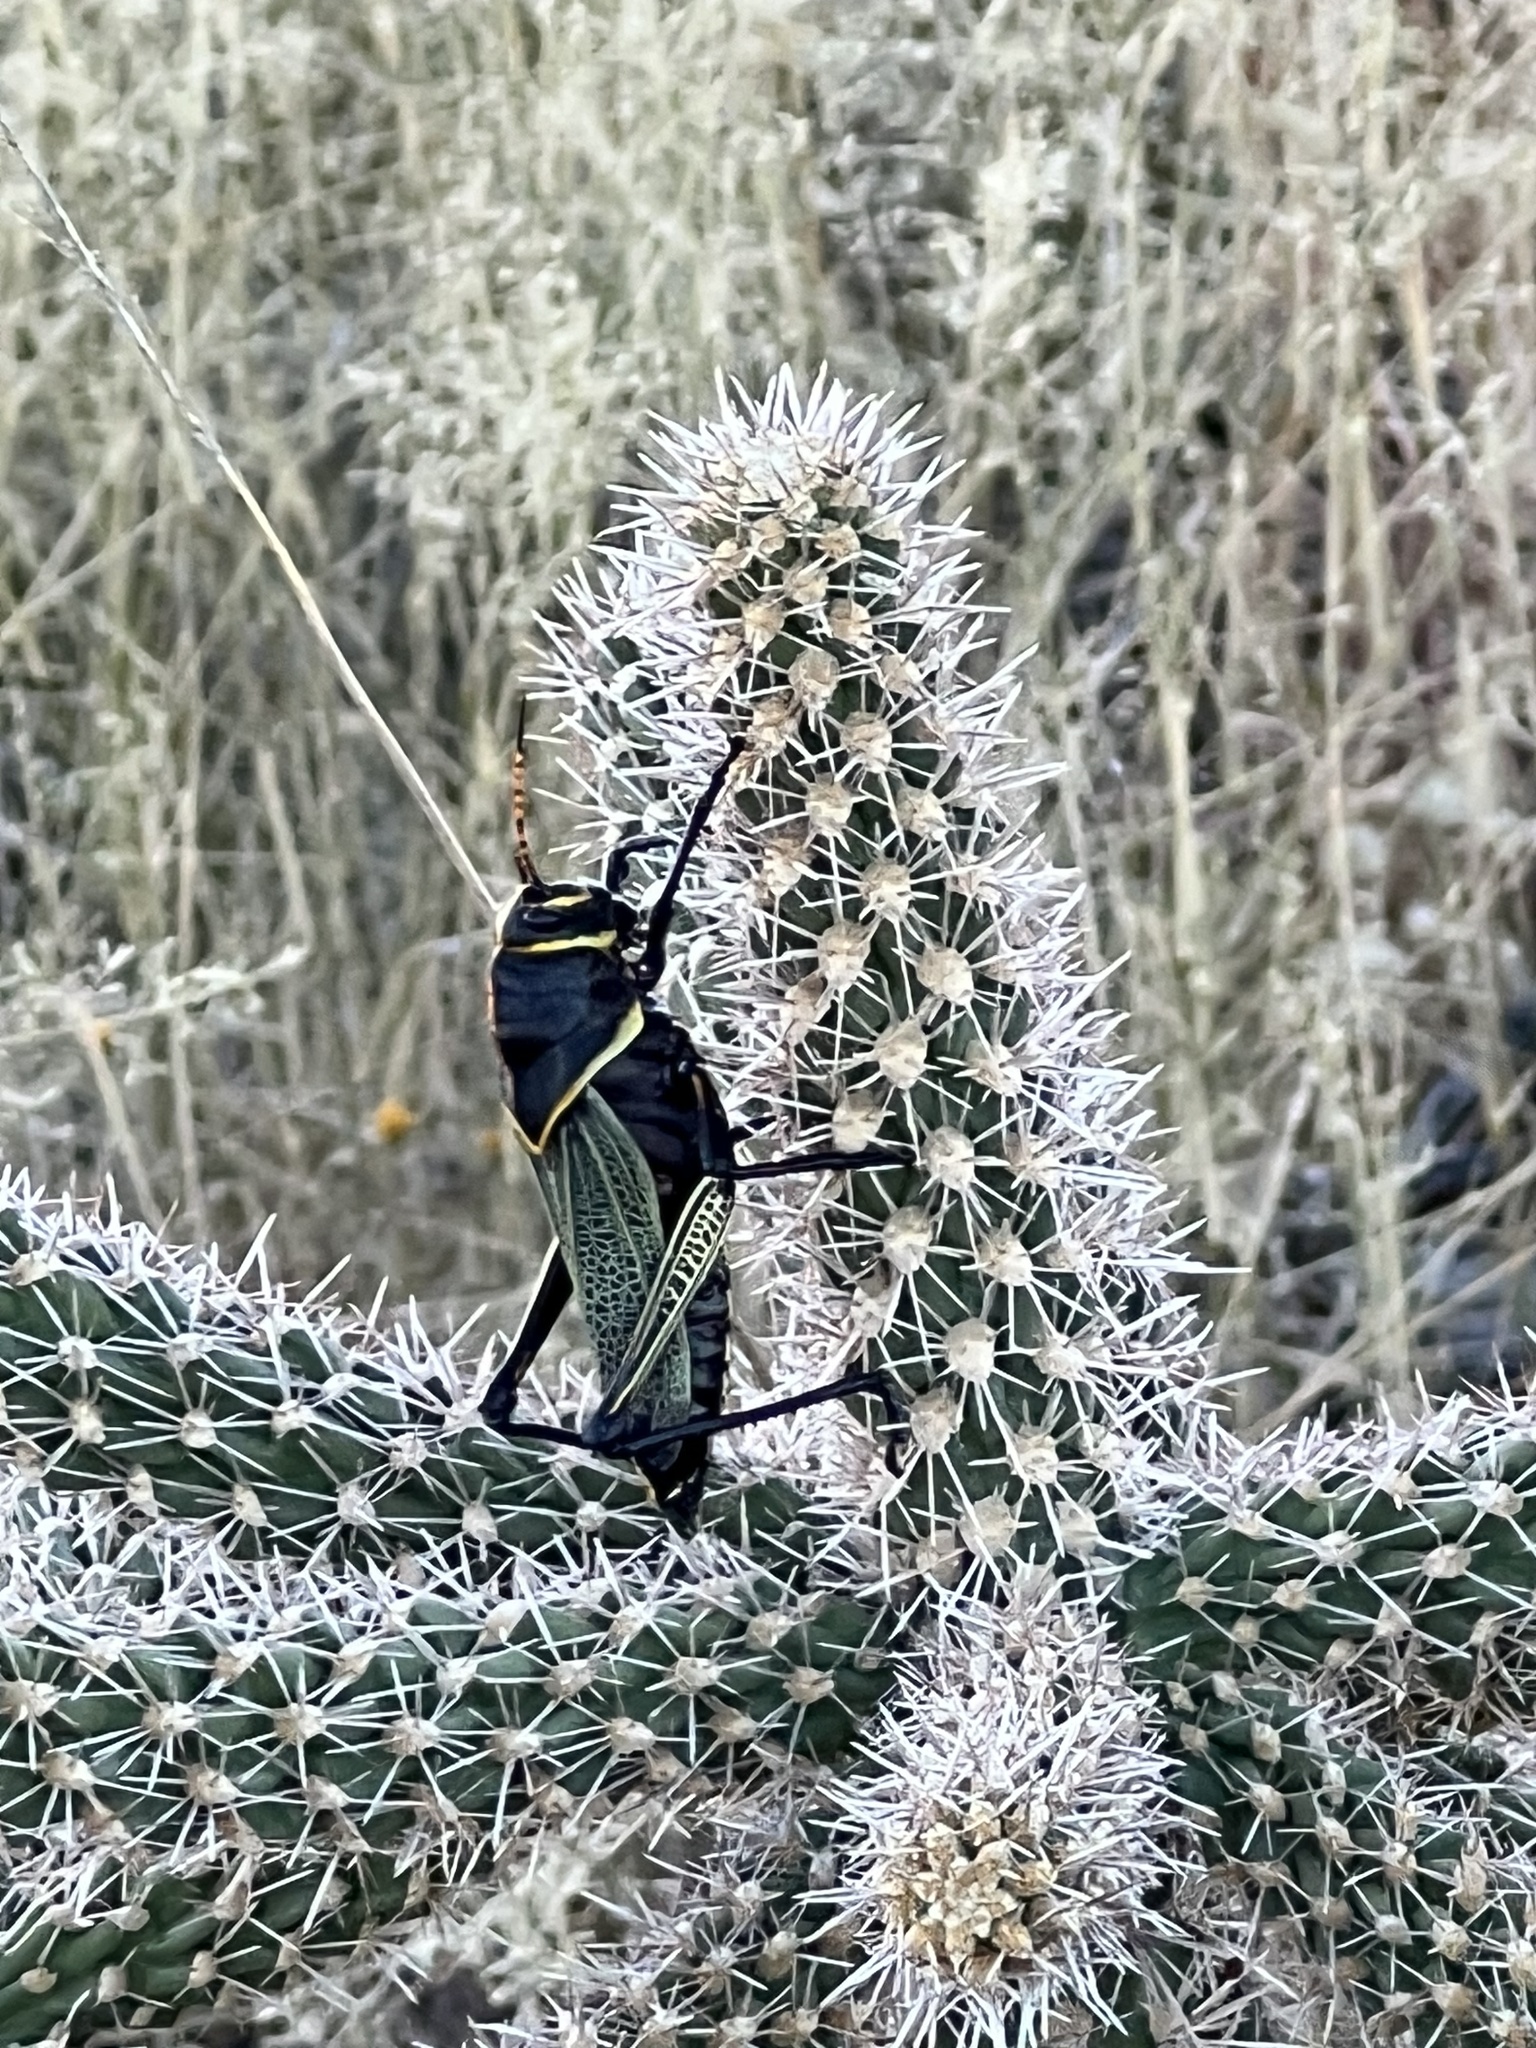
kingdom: Animalia
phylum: Arthropoda
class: Insecta
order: Orthoptera
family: Romaleidae
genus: Romalea
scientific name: Romalea
